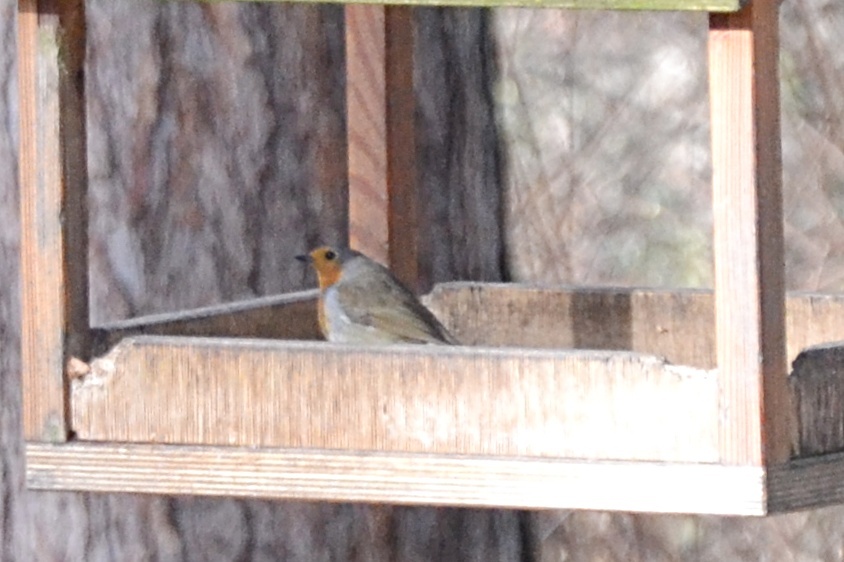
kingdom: Animalia
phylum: Chordata
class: Aves
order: Passeriformes
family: Muscicapidae
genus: Erithacus
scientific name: Erithacus rubecula
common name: European robin
